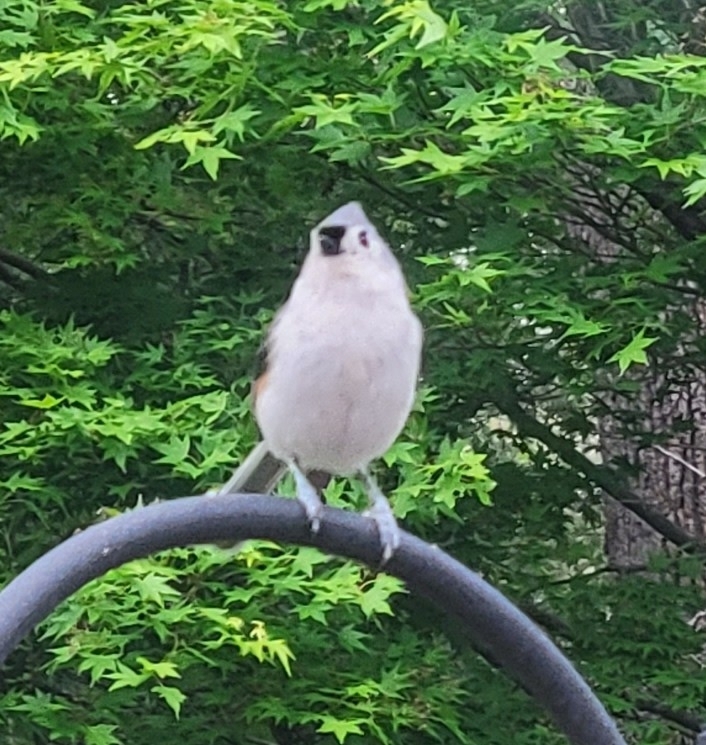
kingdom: Animalia
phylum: Chordata
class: Aves
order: Passeriformes
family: Paridae
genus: Baeolophus
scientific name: Baeolophus bicolor
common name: Tufted titmouse
